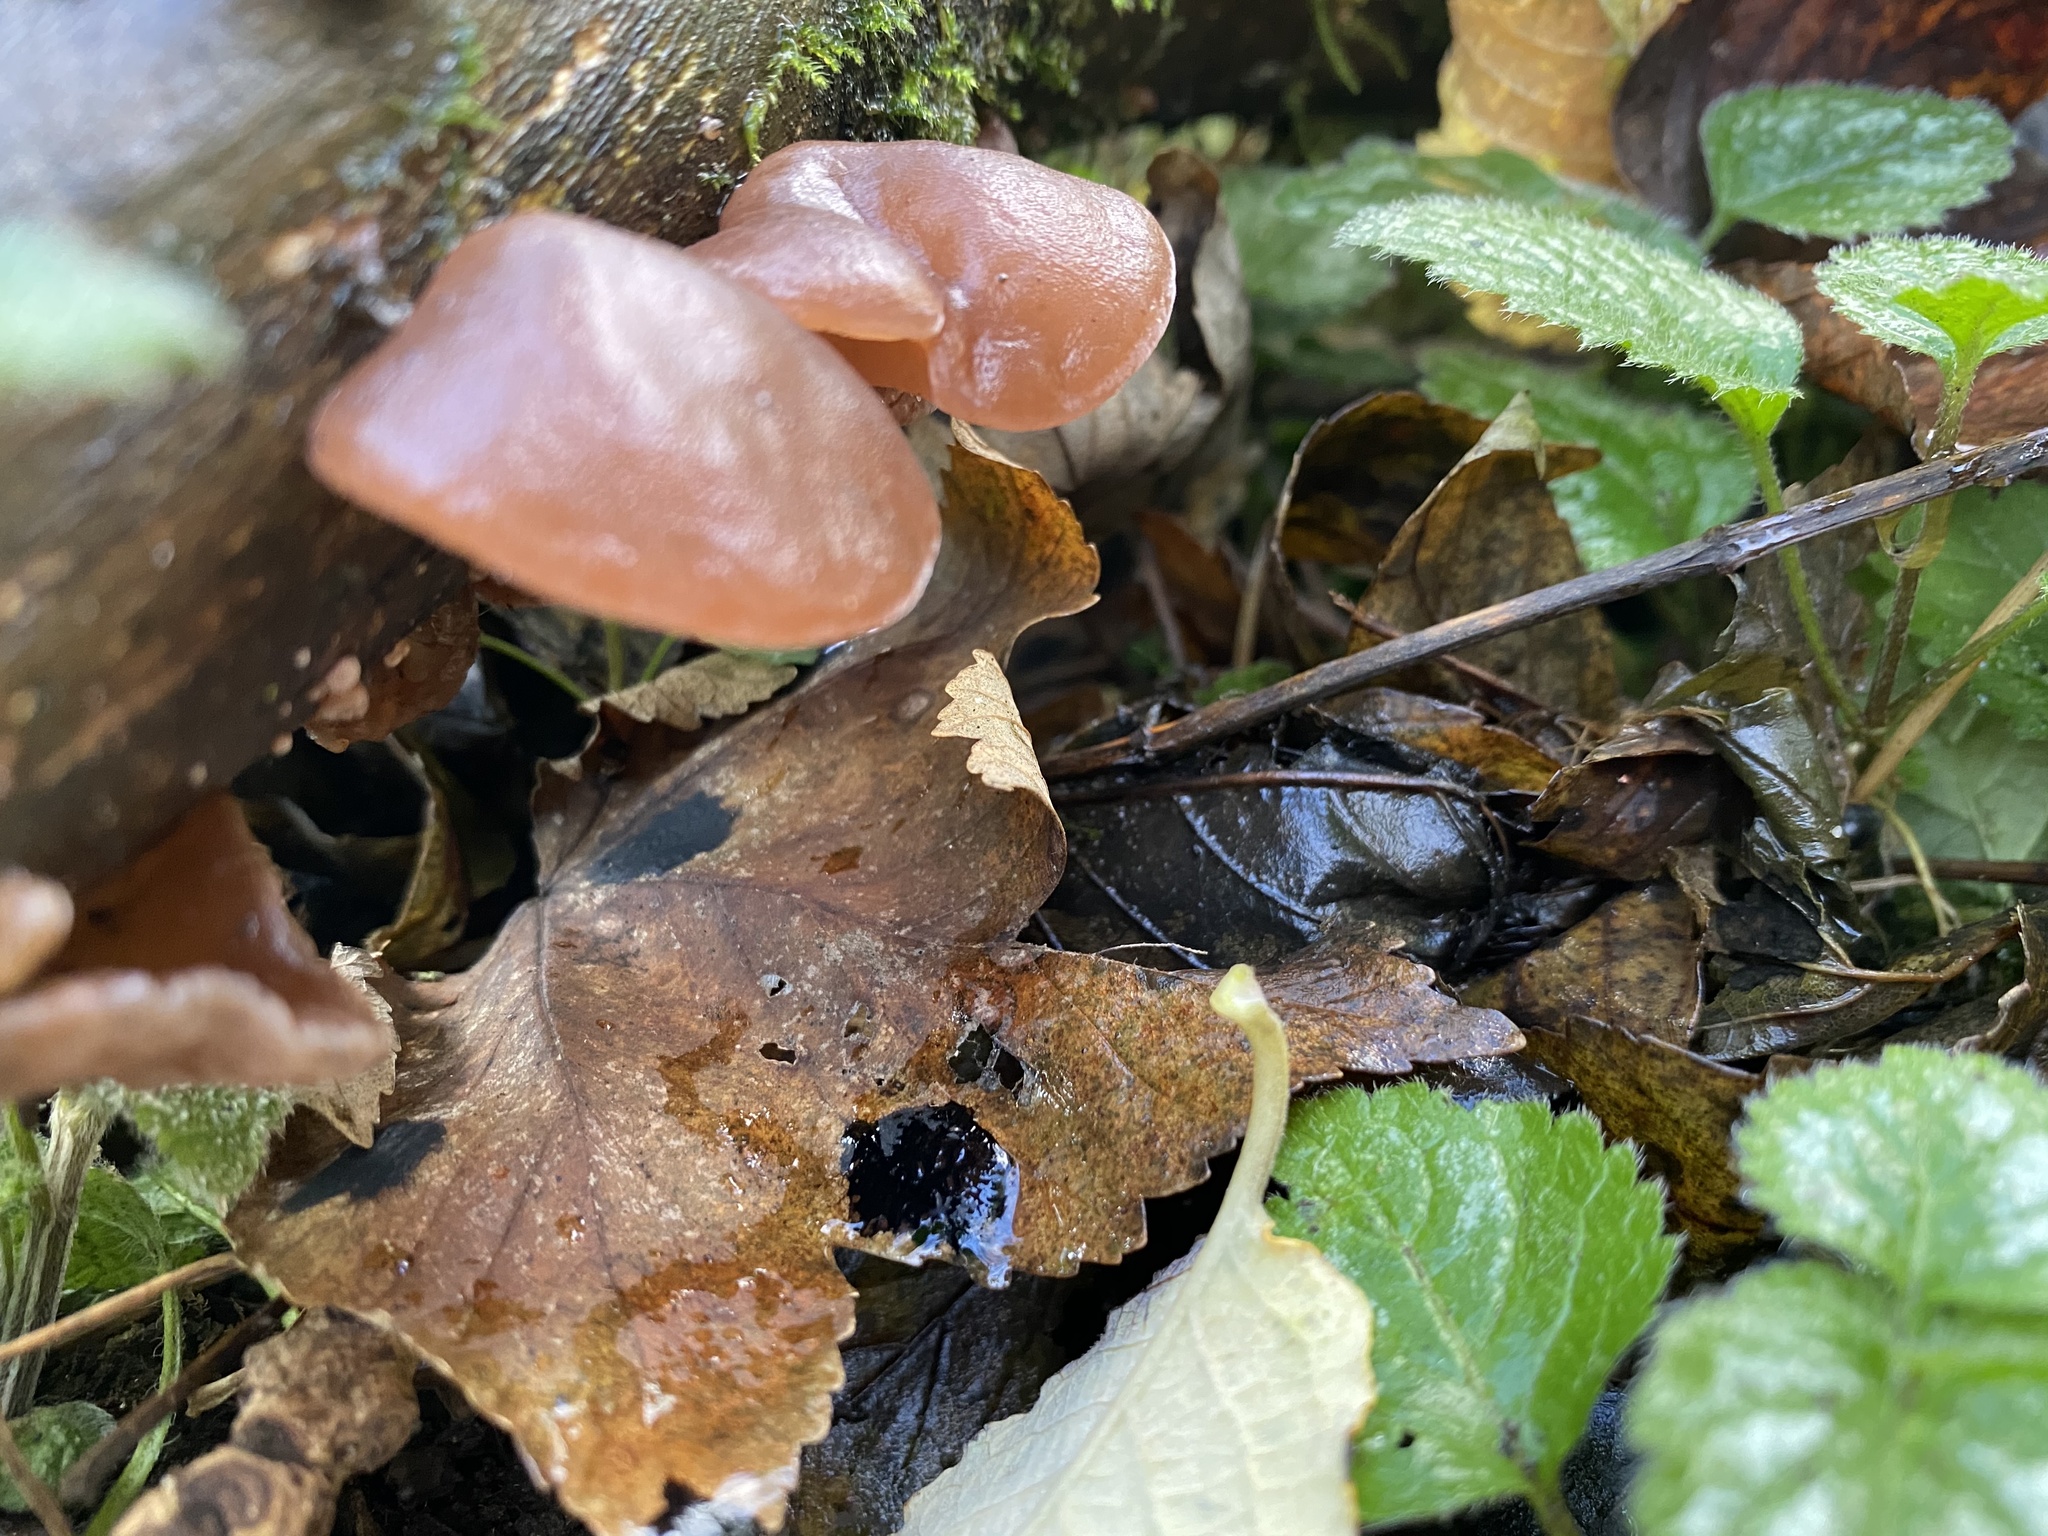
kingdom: Fungi
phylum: Basidiomycota
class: Agaricomycetes
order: Auriculariales
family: Auriculariaceae
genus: Auricularia
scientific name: Auricularia auricula-judae
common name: Jelly ear
